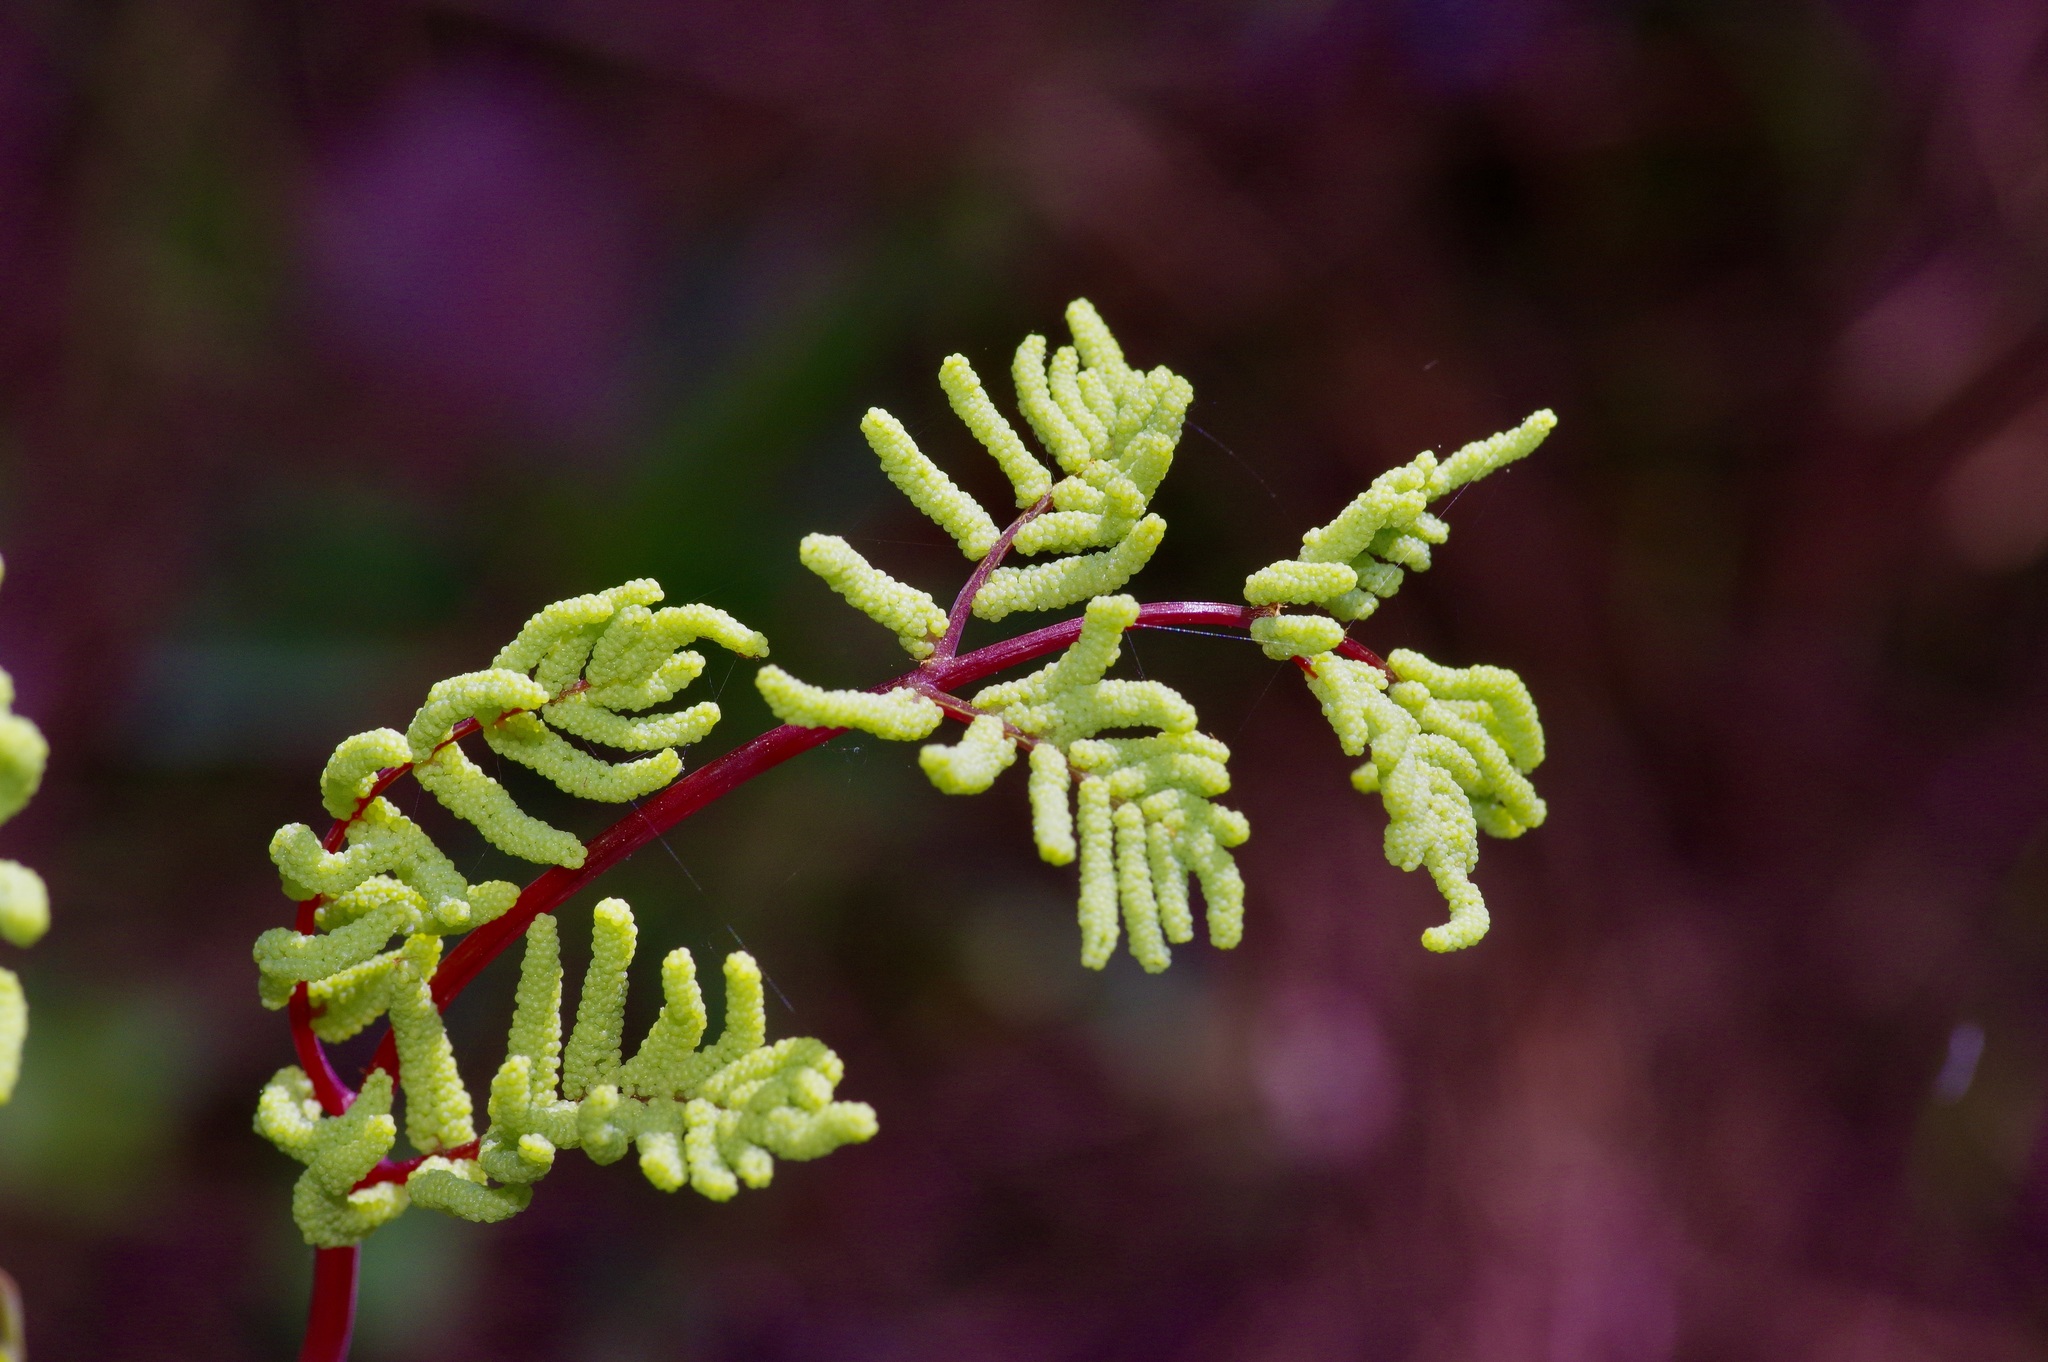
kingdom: Plantae
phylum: Tracheophyta
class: Polypodiopsida
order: Osmundales
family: Osmundaceae
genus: Osmunda
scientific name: Osmunda spectabilis
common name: American royal fern
